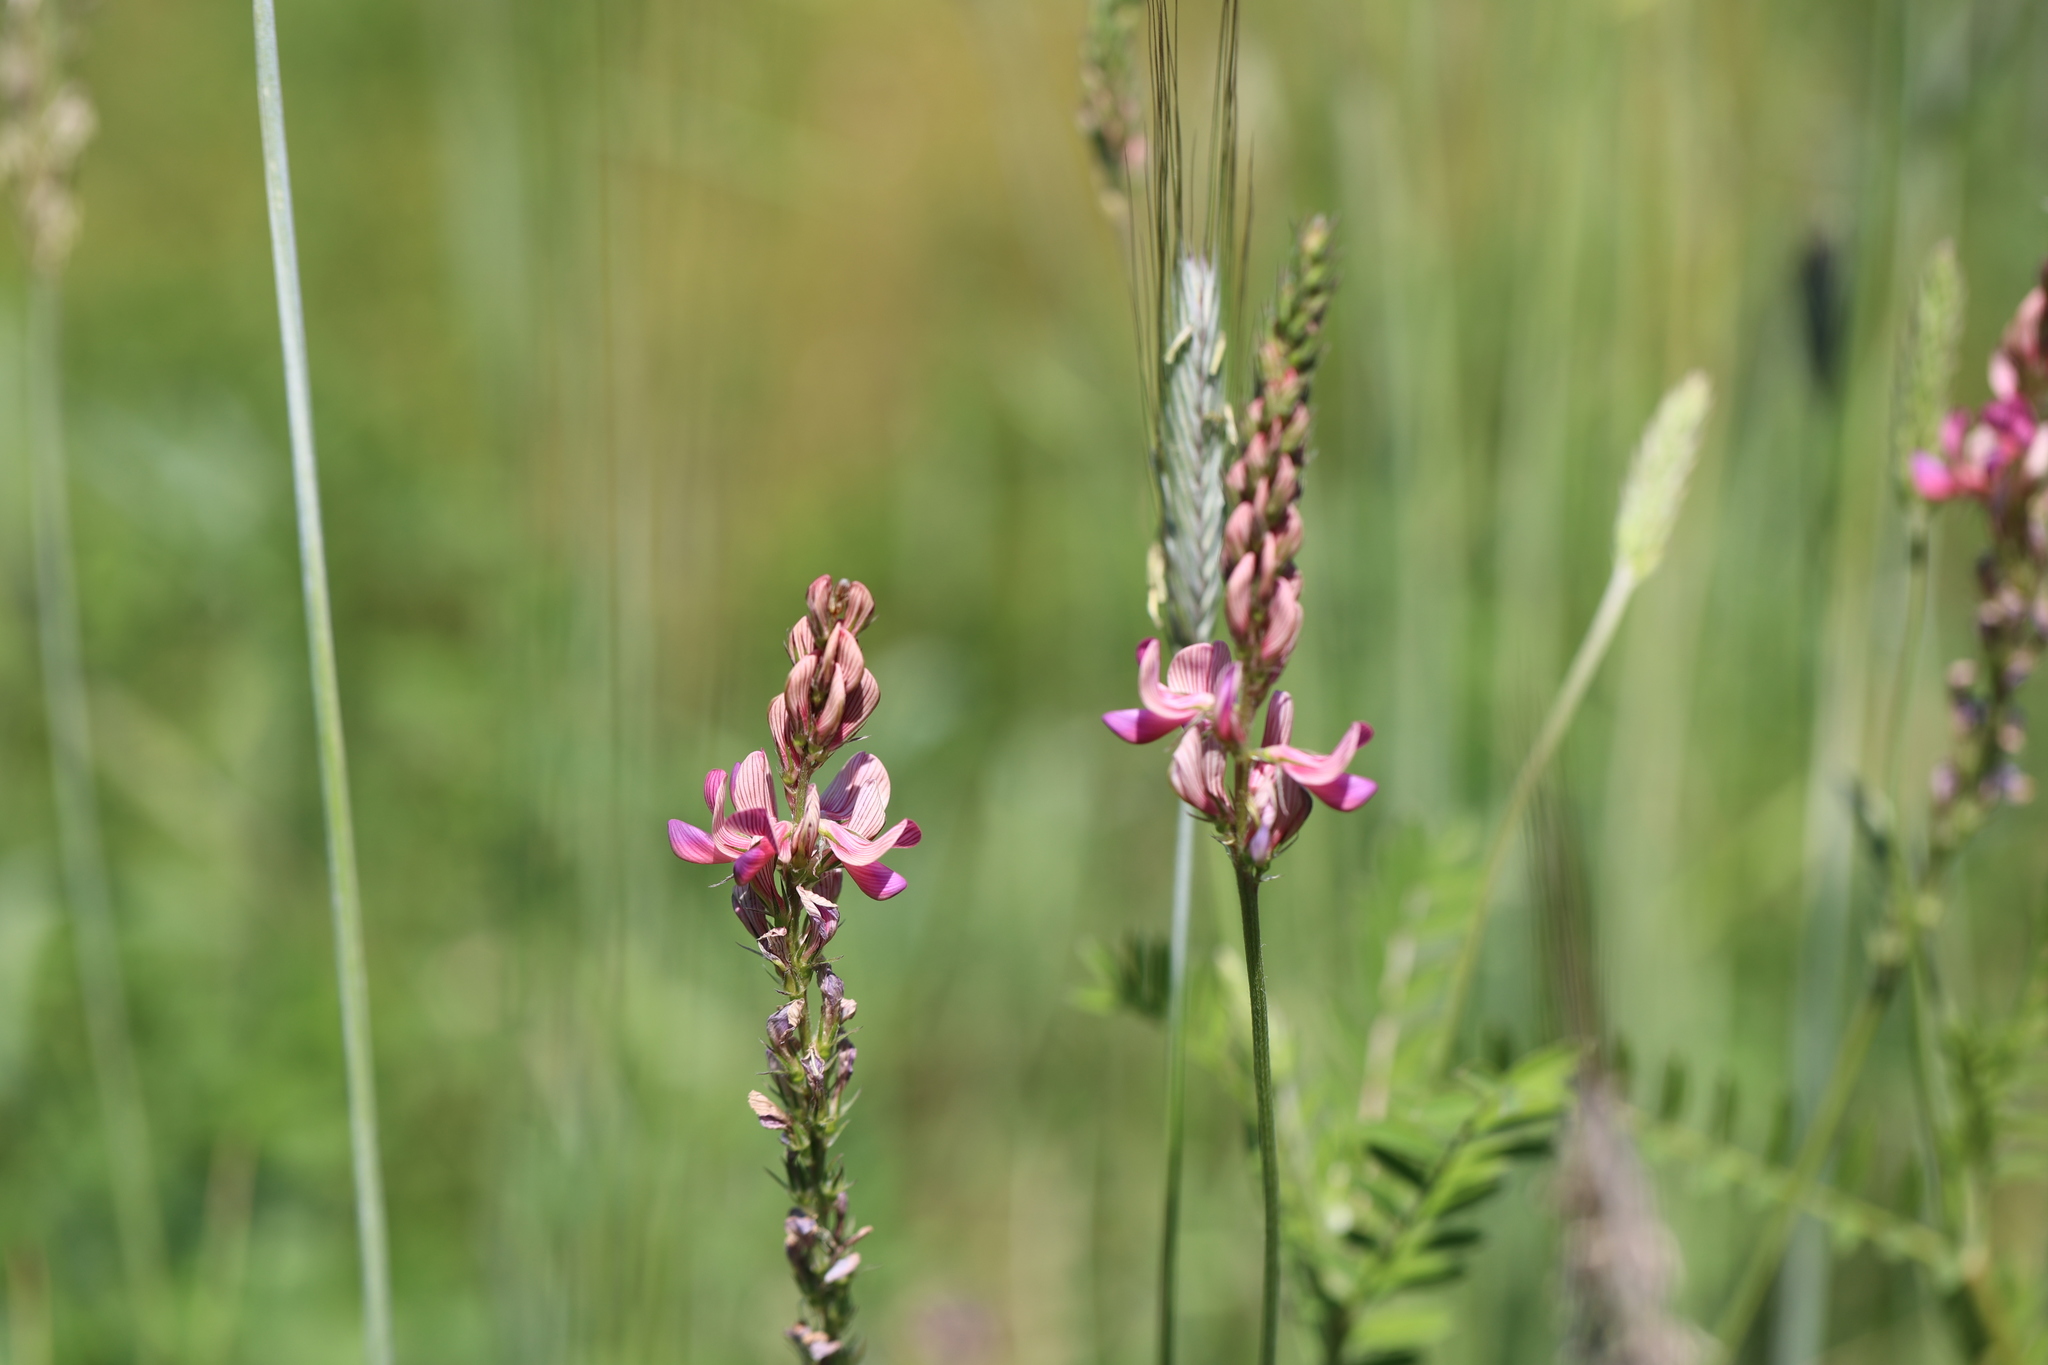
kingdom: Plantae
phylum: Tracheophyta
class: Magnoliopsida
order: Fabales
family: Fabaceae
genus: Onobrychis
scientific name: Onobrychis viciifolia
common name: Sainfoin
